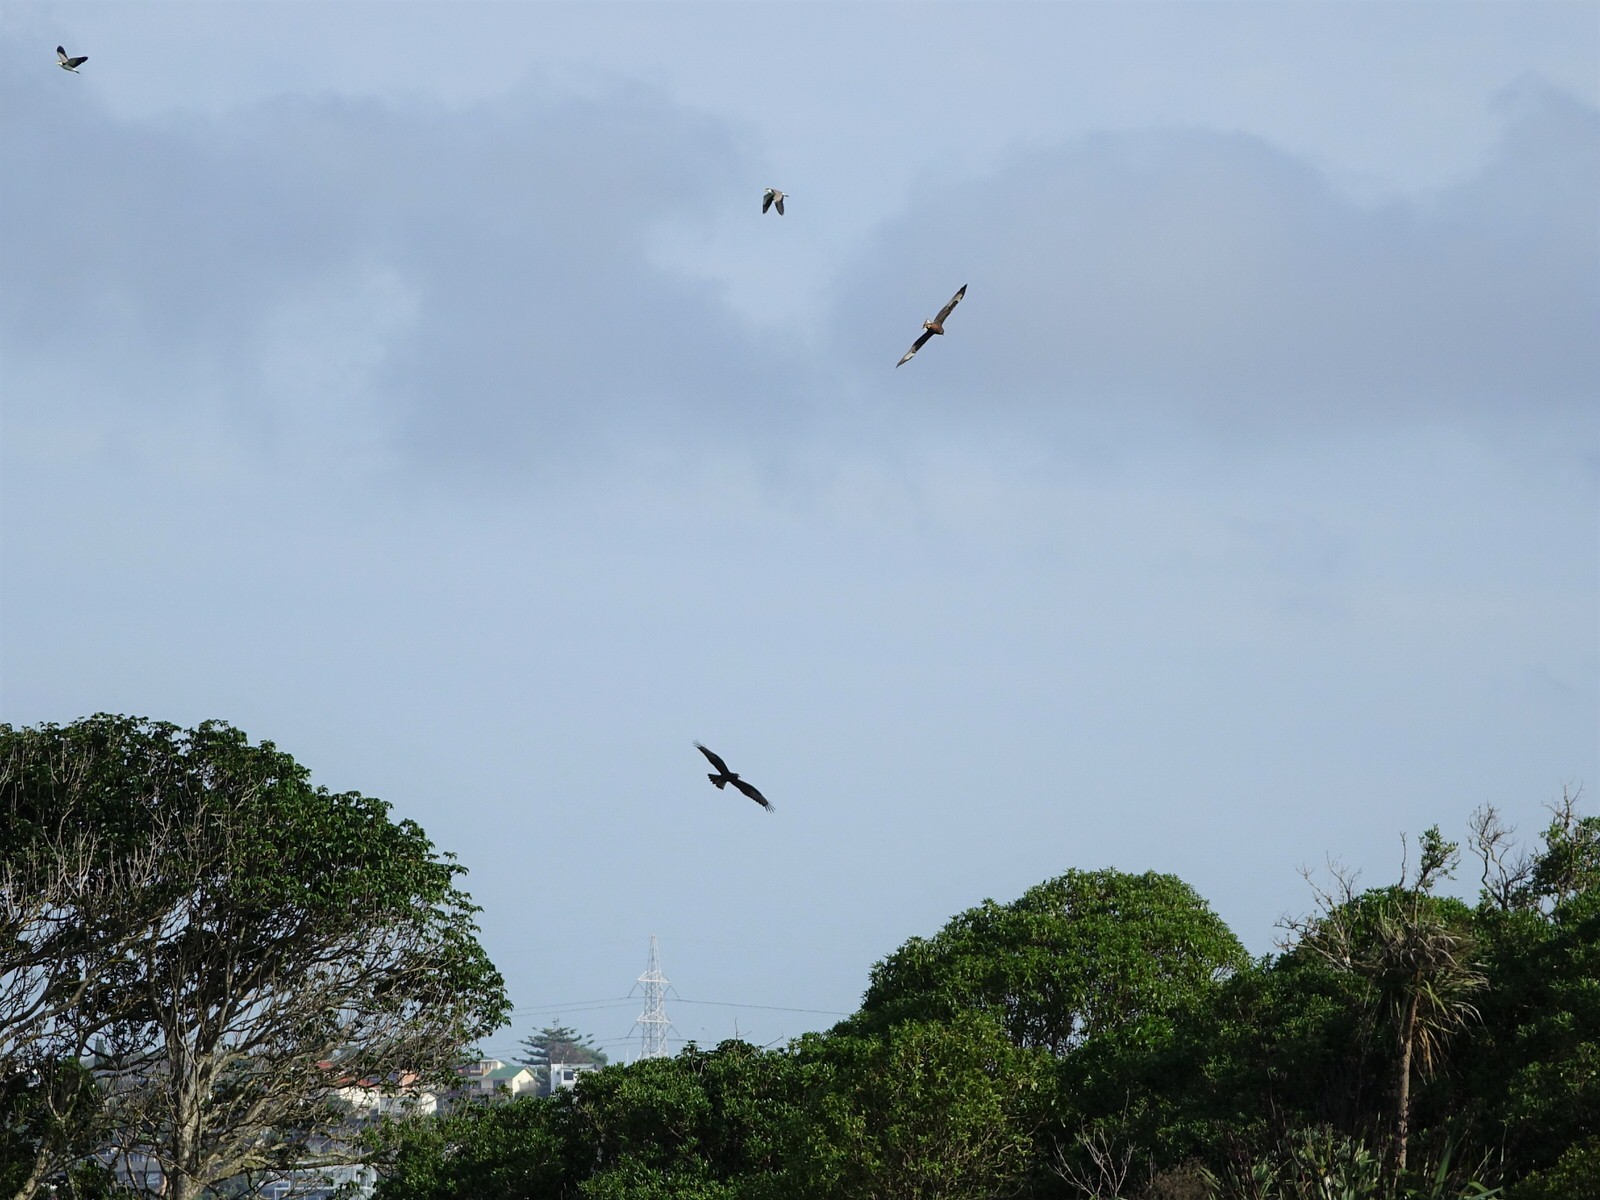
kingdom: Animalia
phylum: Chordata
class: Aves
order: Accipitriformes
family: Accipitridae
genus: Circus
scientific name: Circus approximans
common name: Swamp harrier
